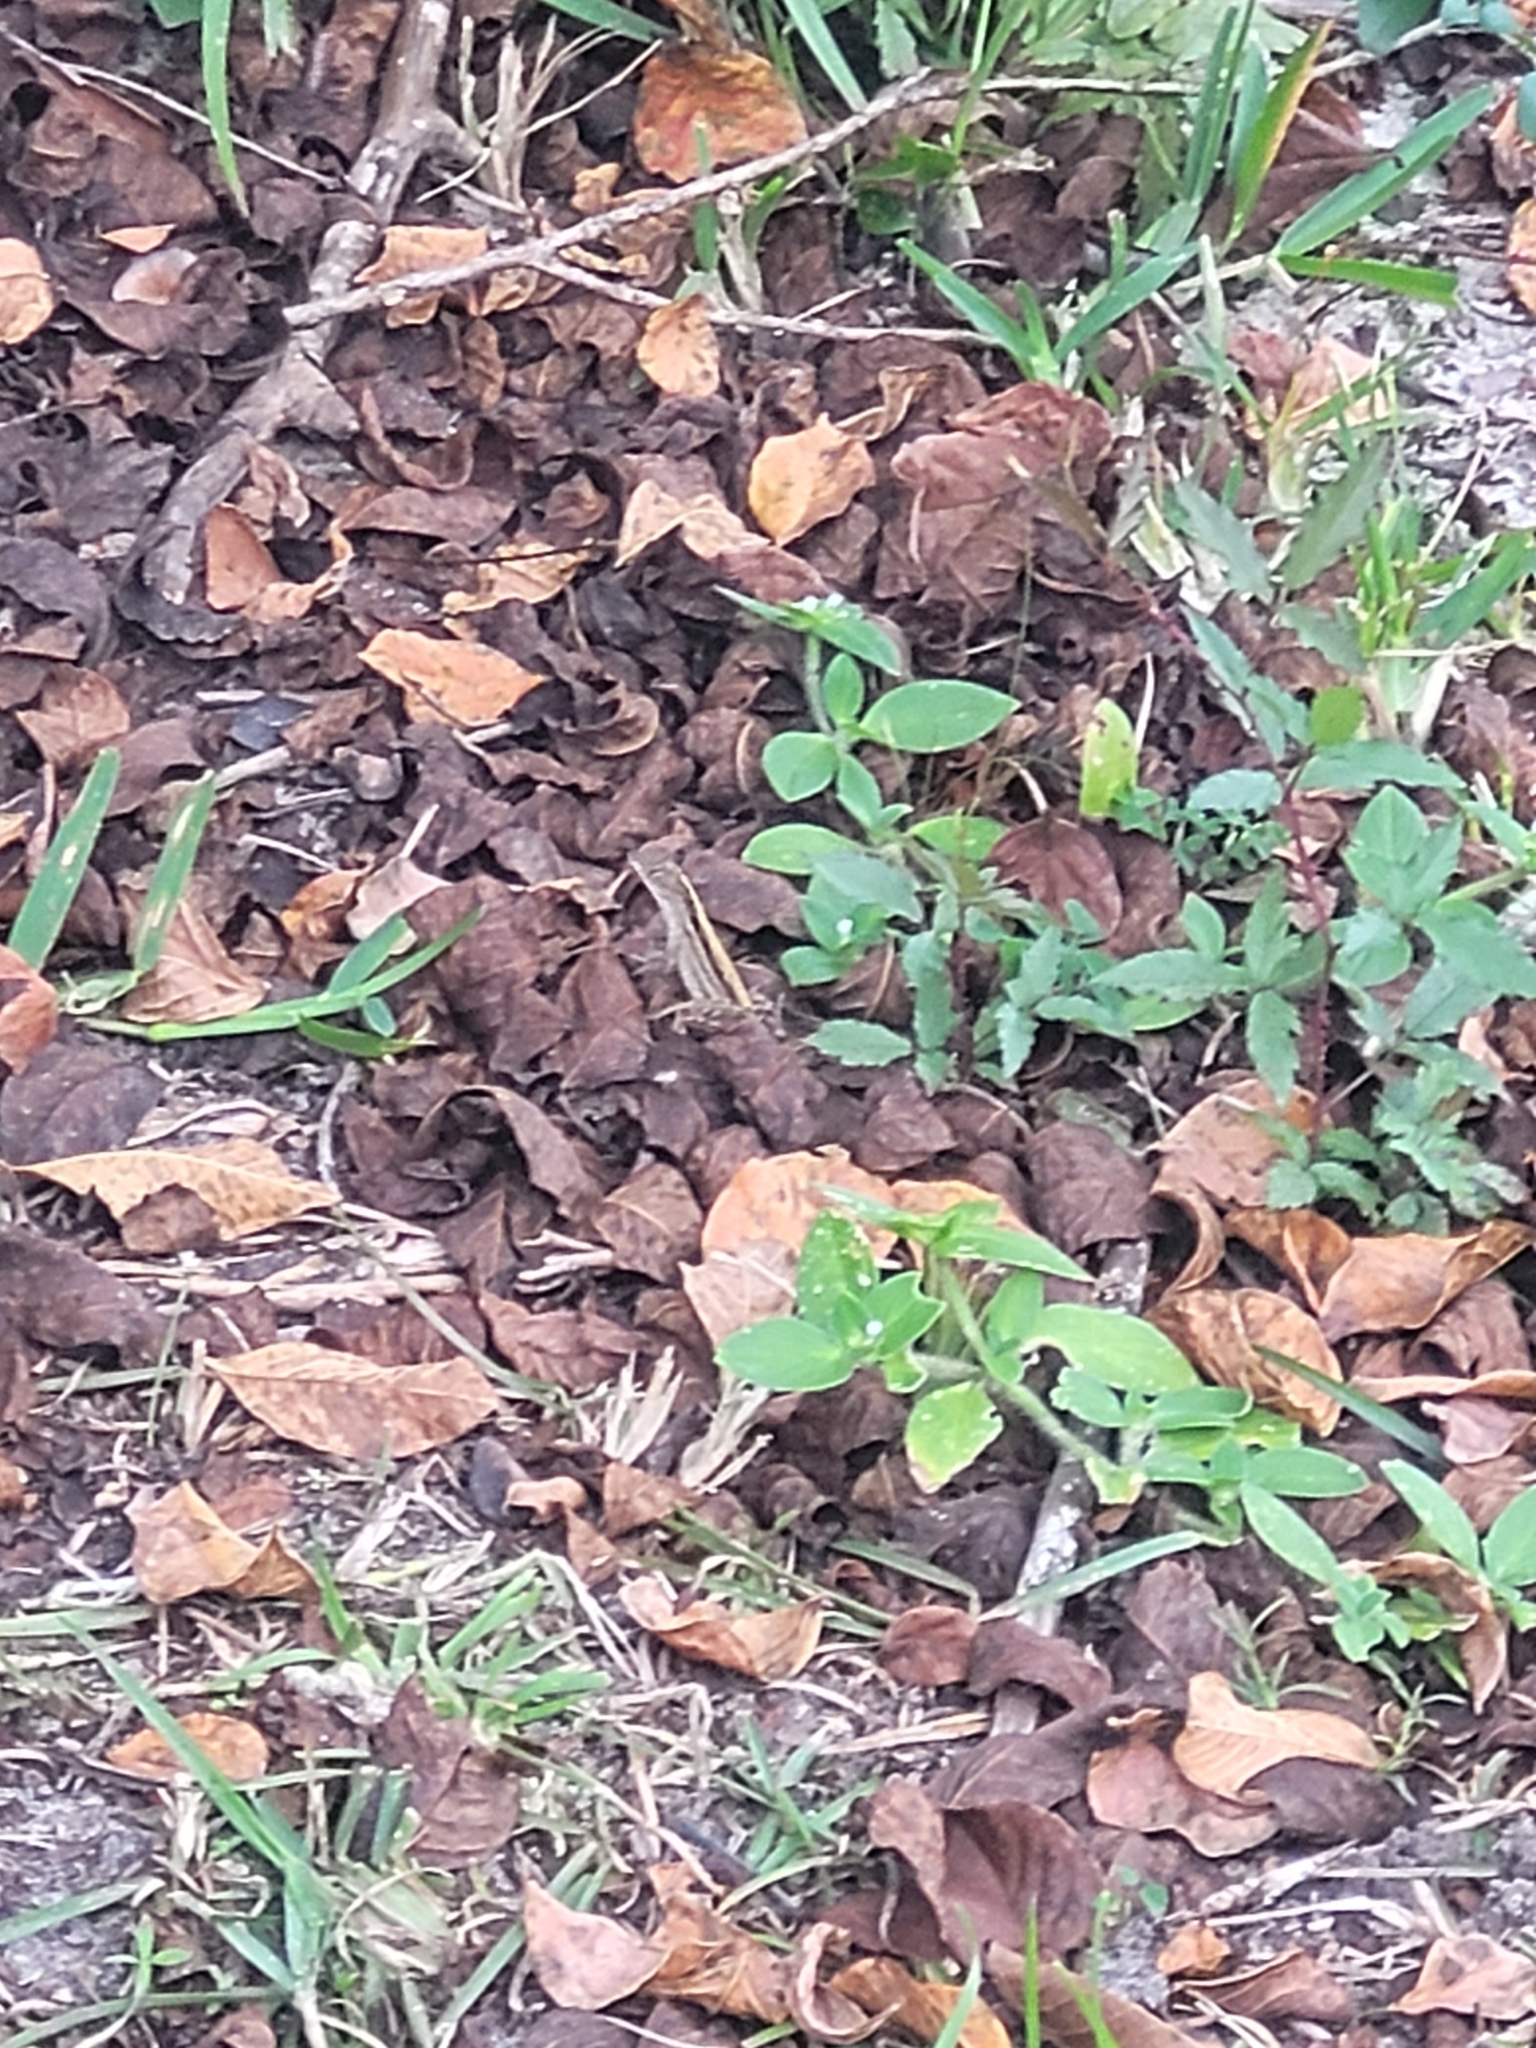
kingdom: Animalia
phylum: Chordata
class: Squamata
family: Dactyloidae
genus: Anolis
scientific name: Anolis sagrei
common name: Brown anole
